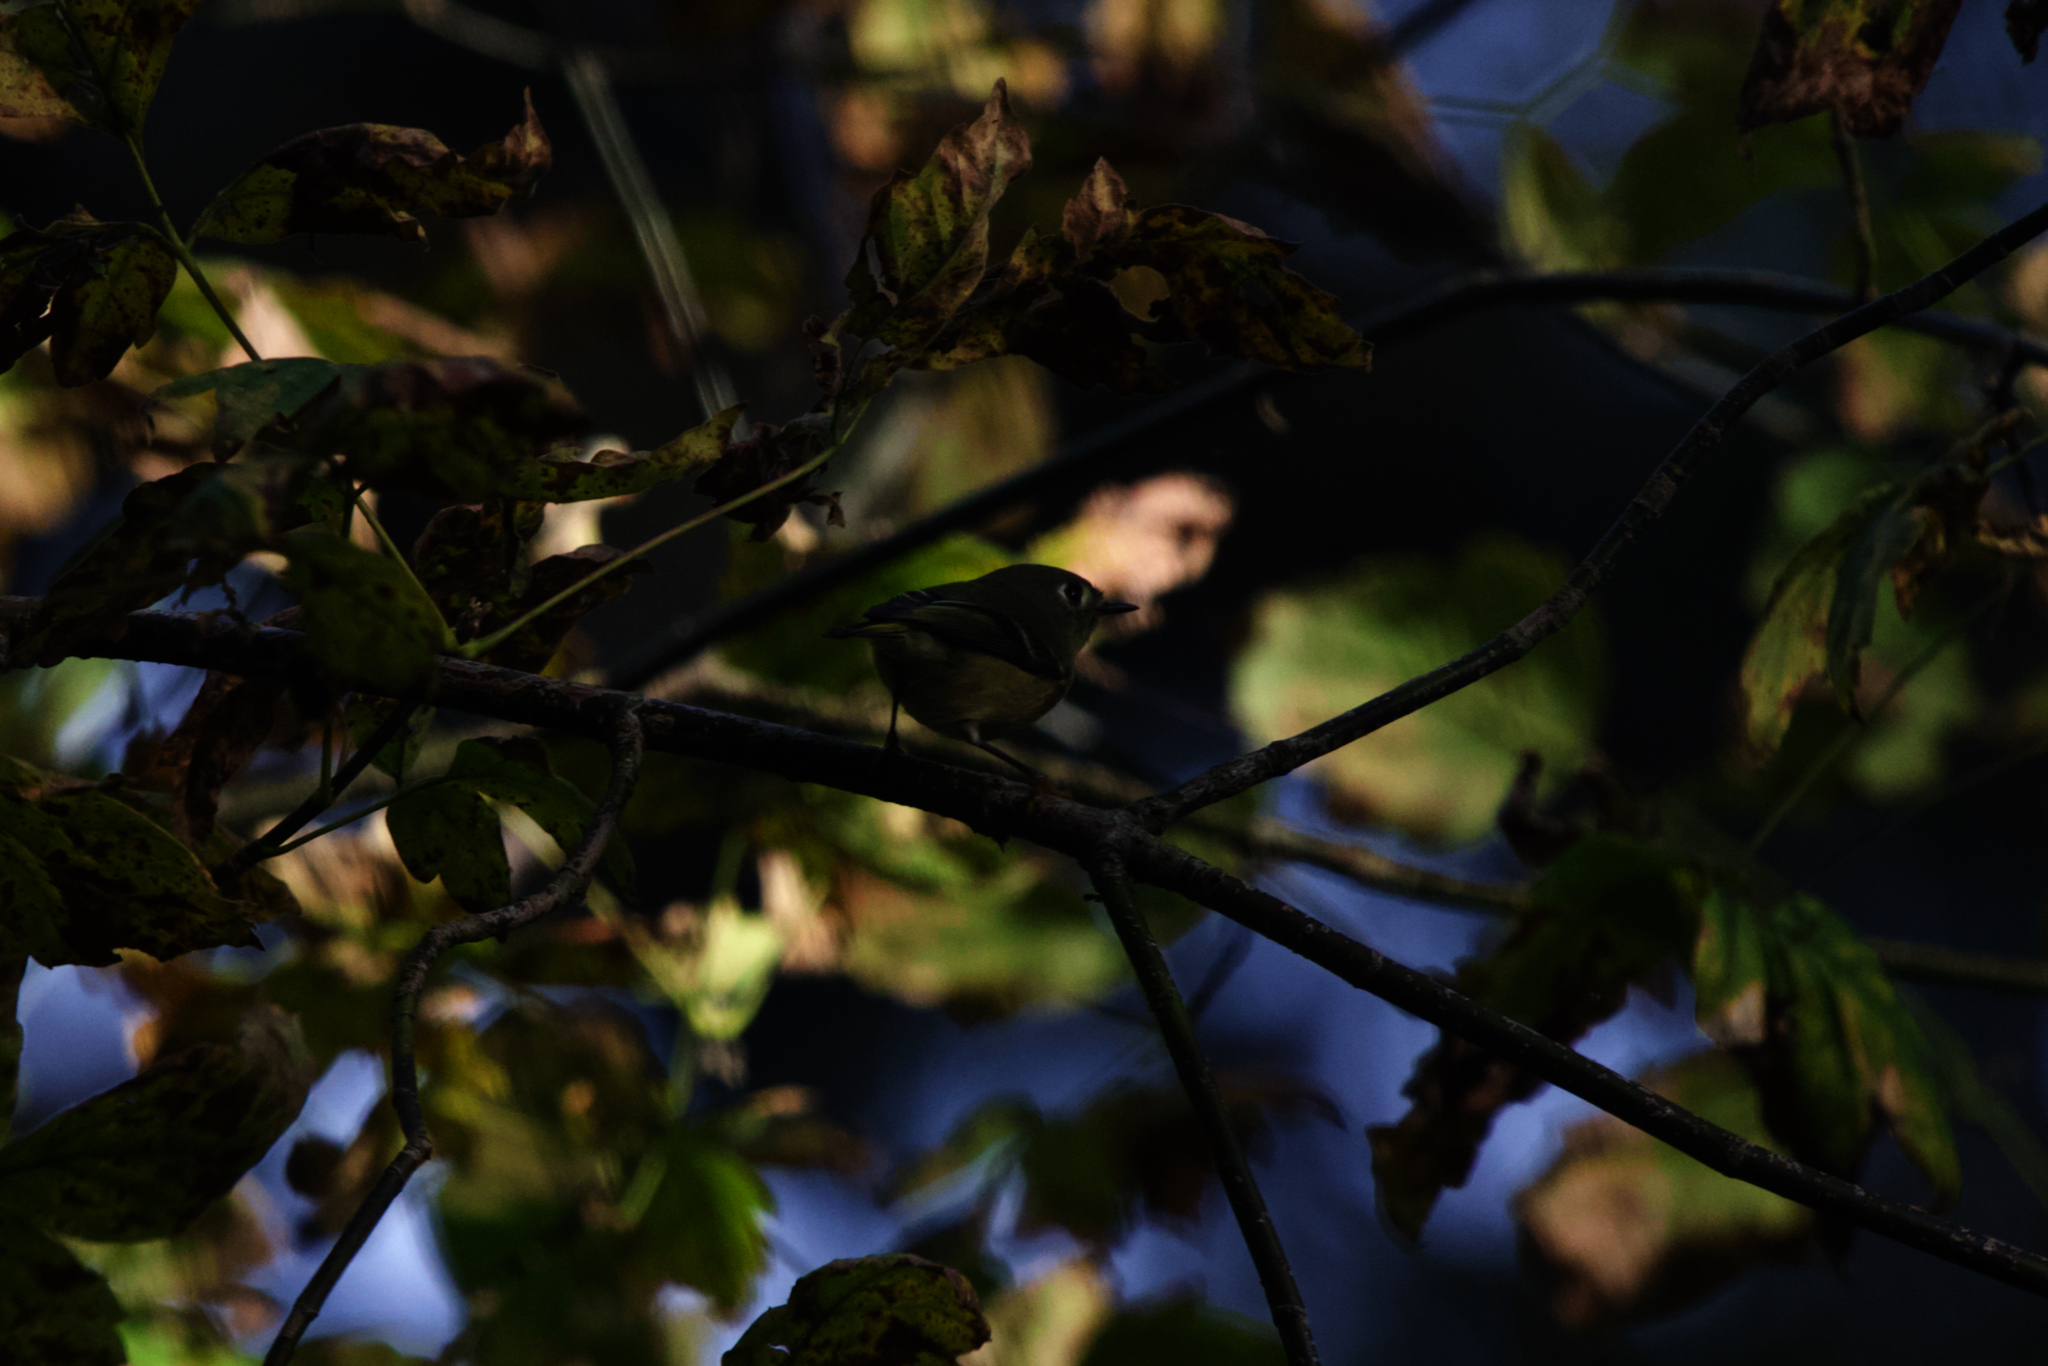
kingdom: Animalia
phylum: Chordata
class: Aves
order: Passeriformes
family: Regulidae
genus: Regulus
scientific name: Regulus calendula
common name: Ruby-crowned kinglet
